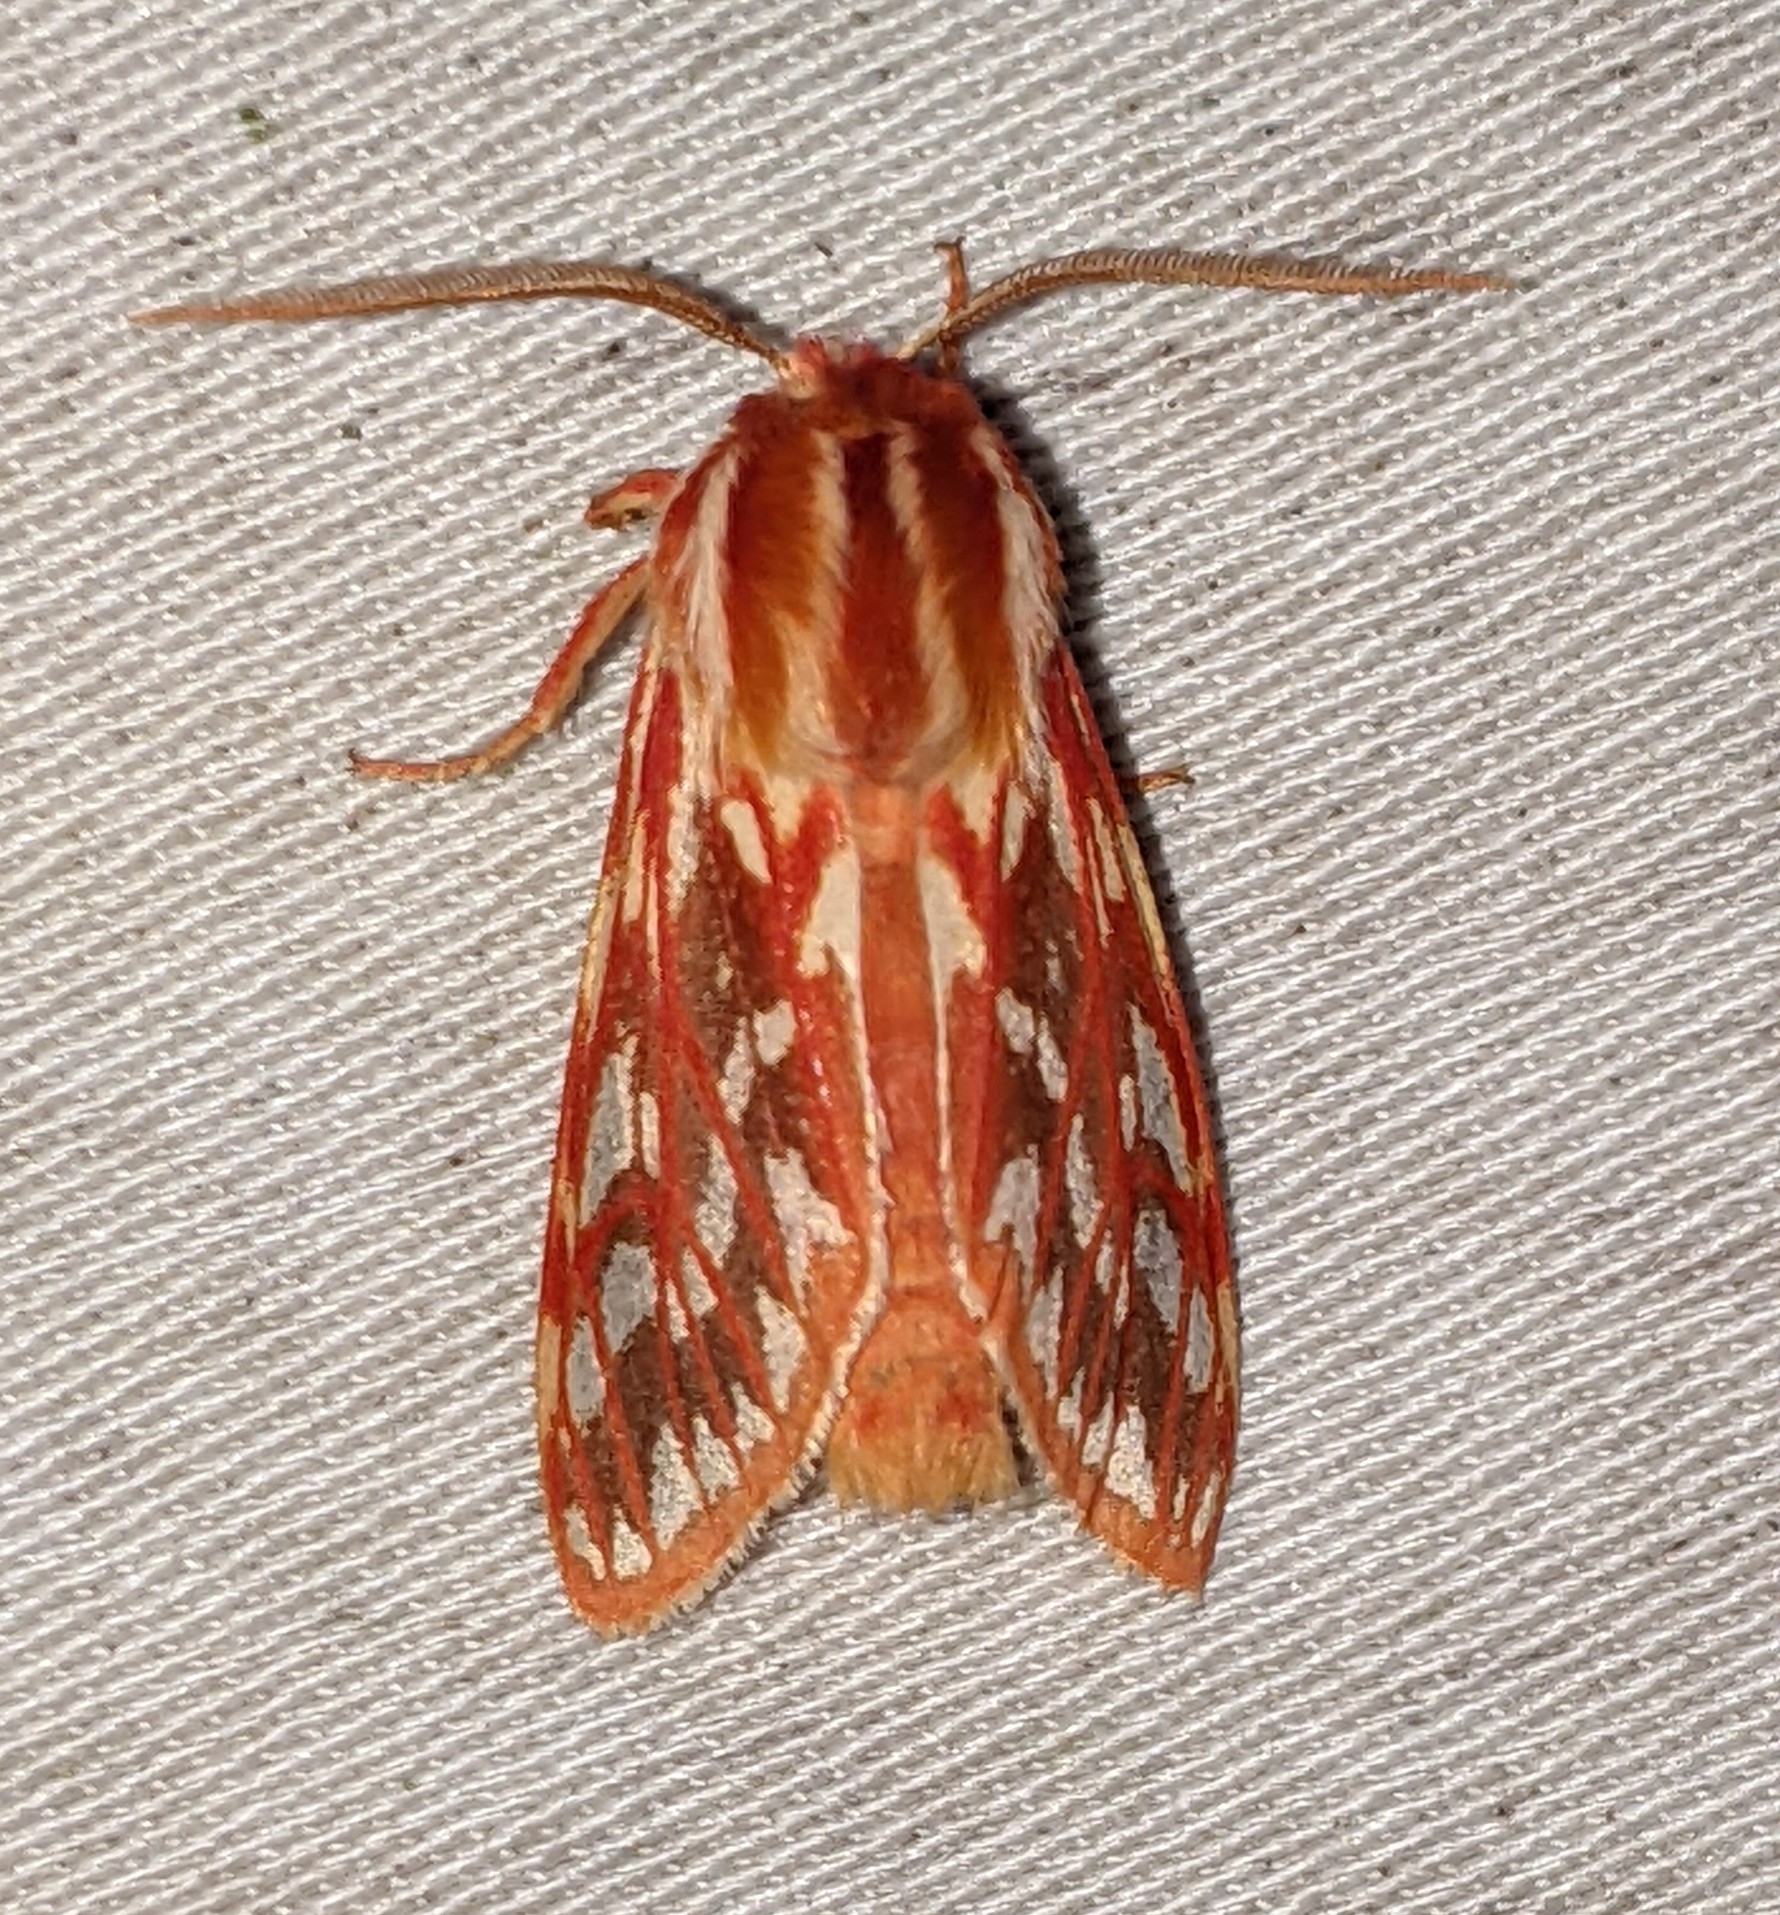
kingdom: Animalia
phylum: Arthropoda
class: Insecta
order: Lepidoptera
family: Erebidae
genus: Lophocampa
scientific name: Lophocampa roseata
